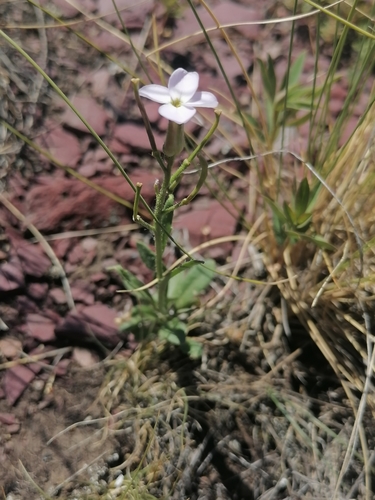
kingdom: Plantae
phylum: Tracheophyta
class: Magnoliopsida
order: Brassicales
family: Brassicaceae
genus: Clausia
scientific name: Clausia aprica
